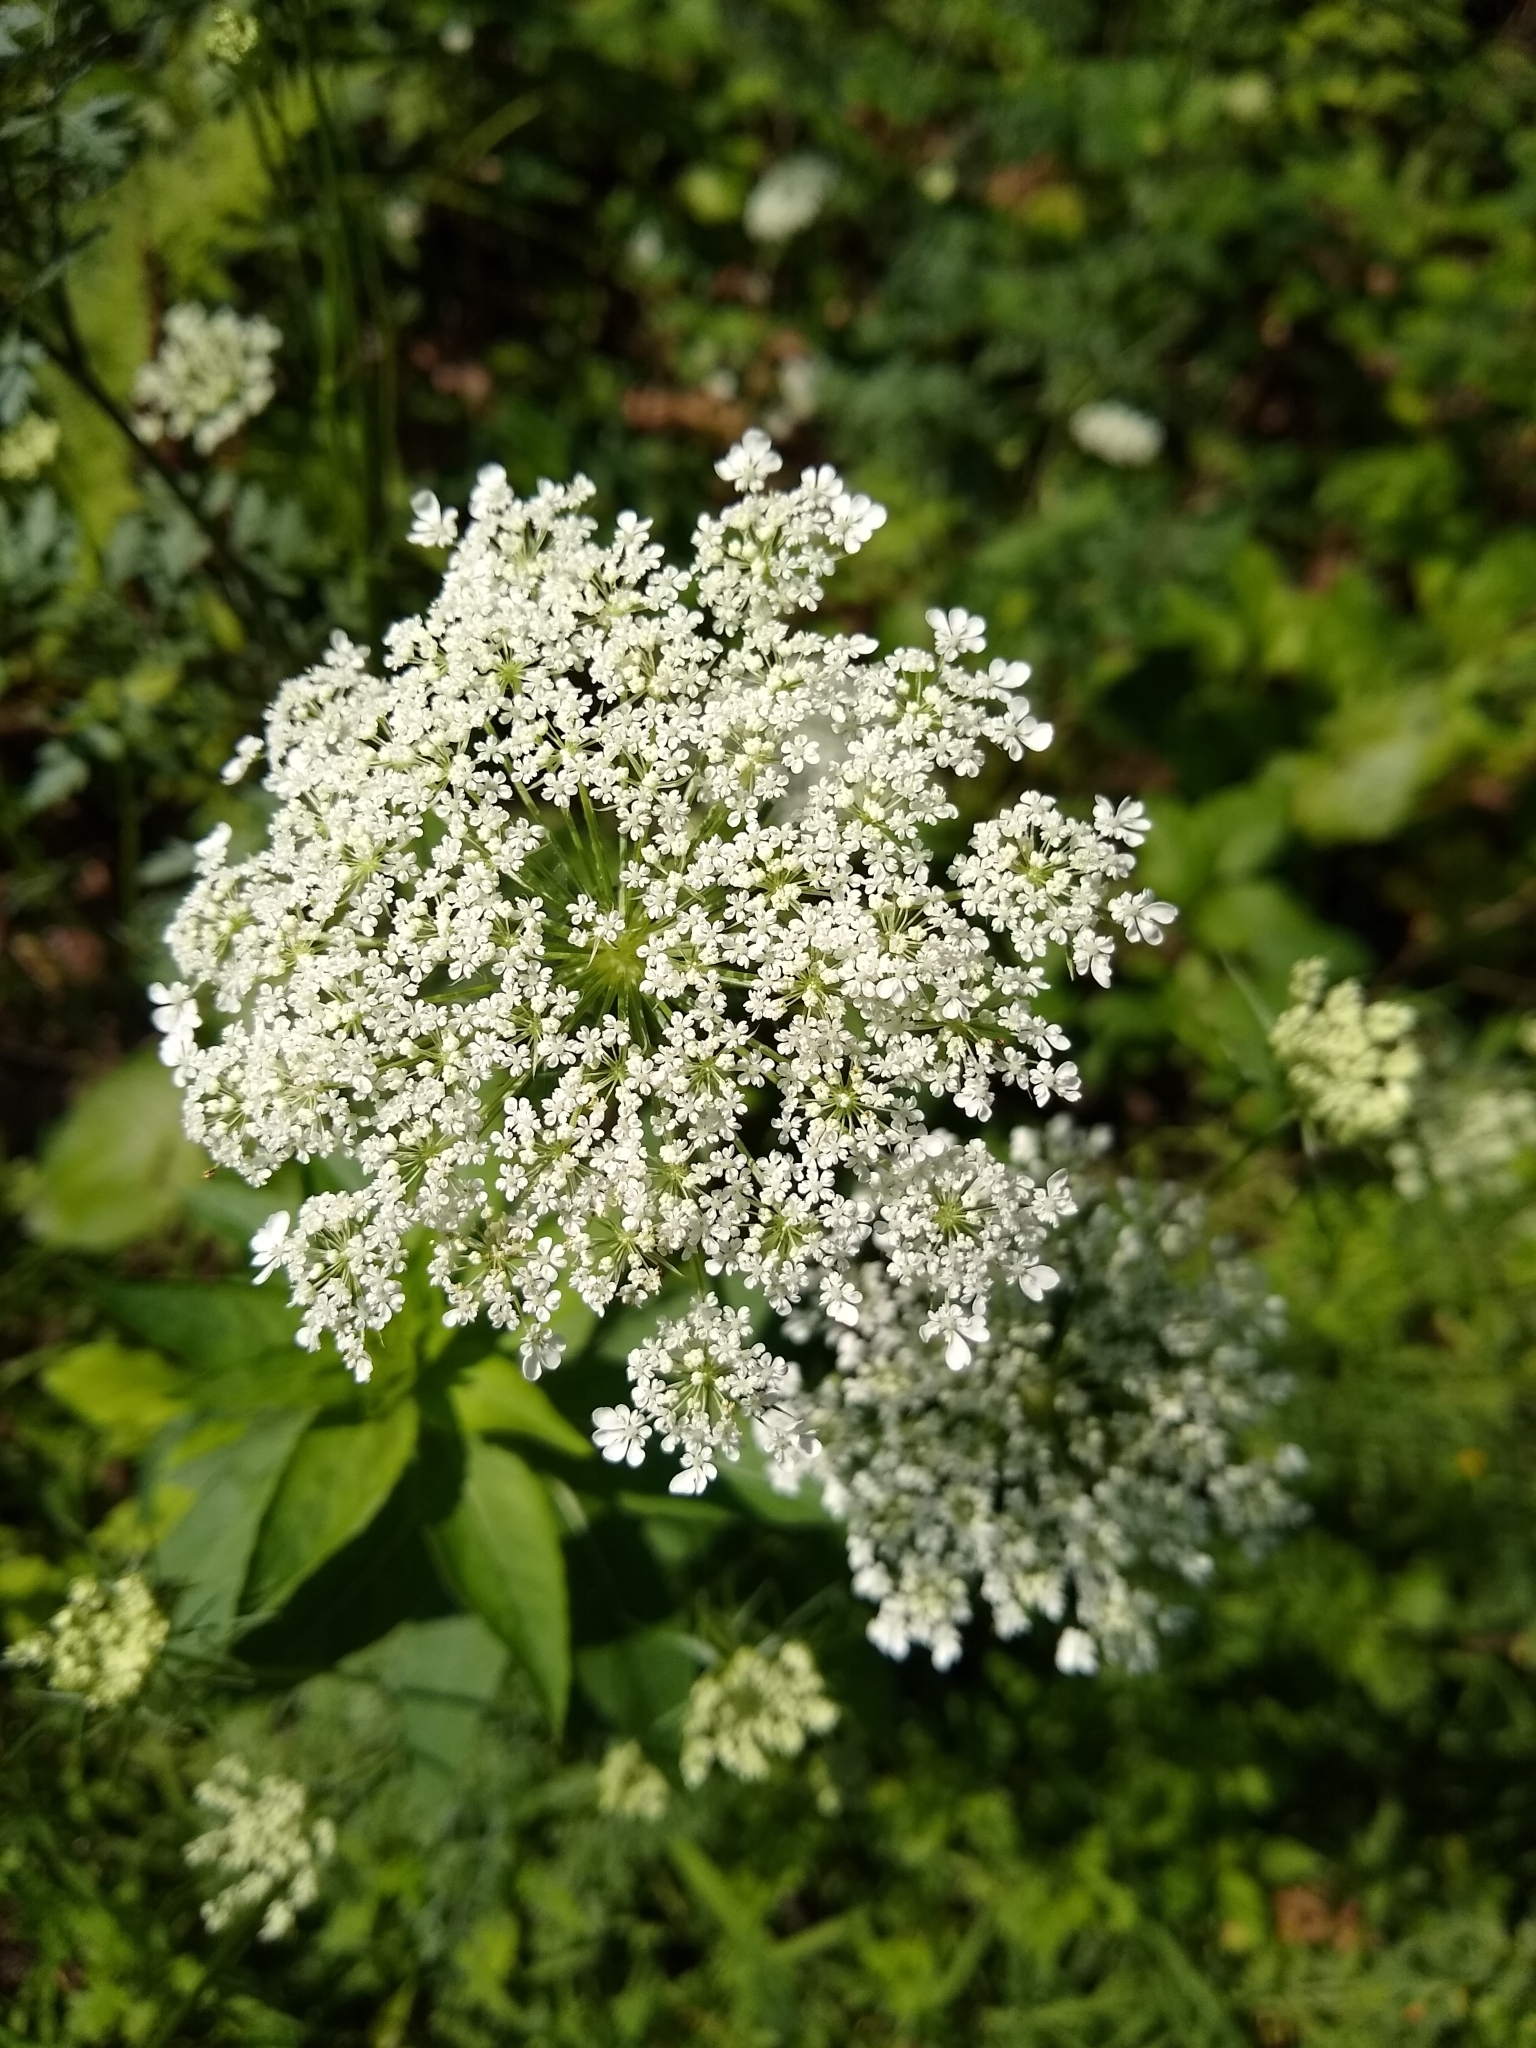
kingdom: Plantae
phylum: Tracheophyta
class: Magnoliopsida
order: Apiales
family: Apiaceae
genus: Daucus
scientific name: Daucus carota
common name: Wild carrot
